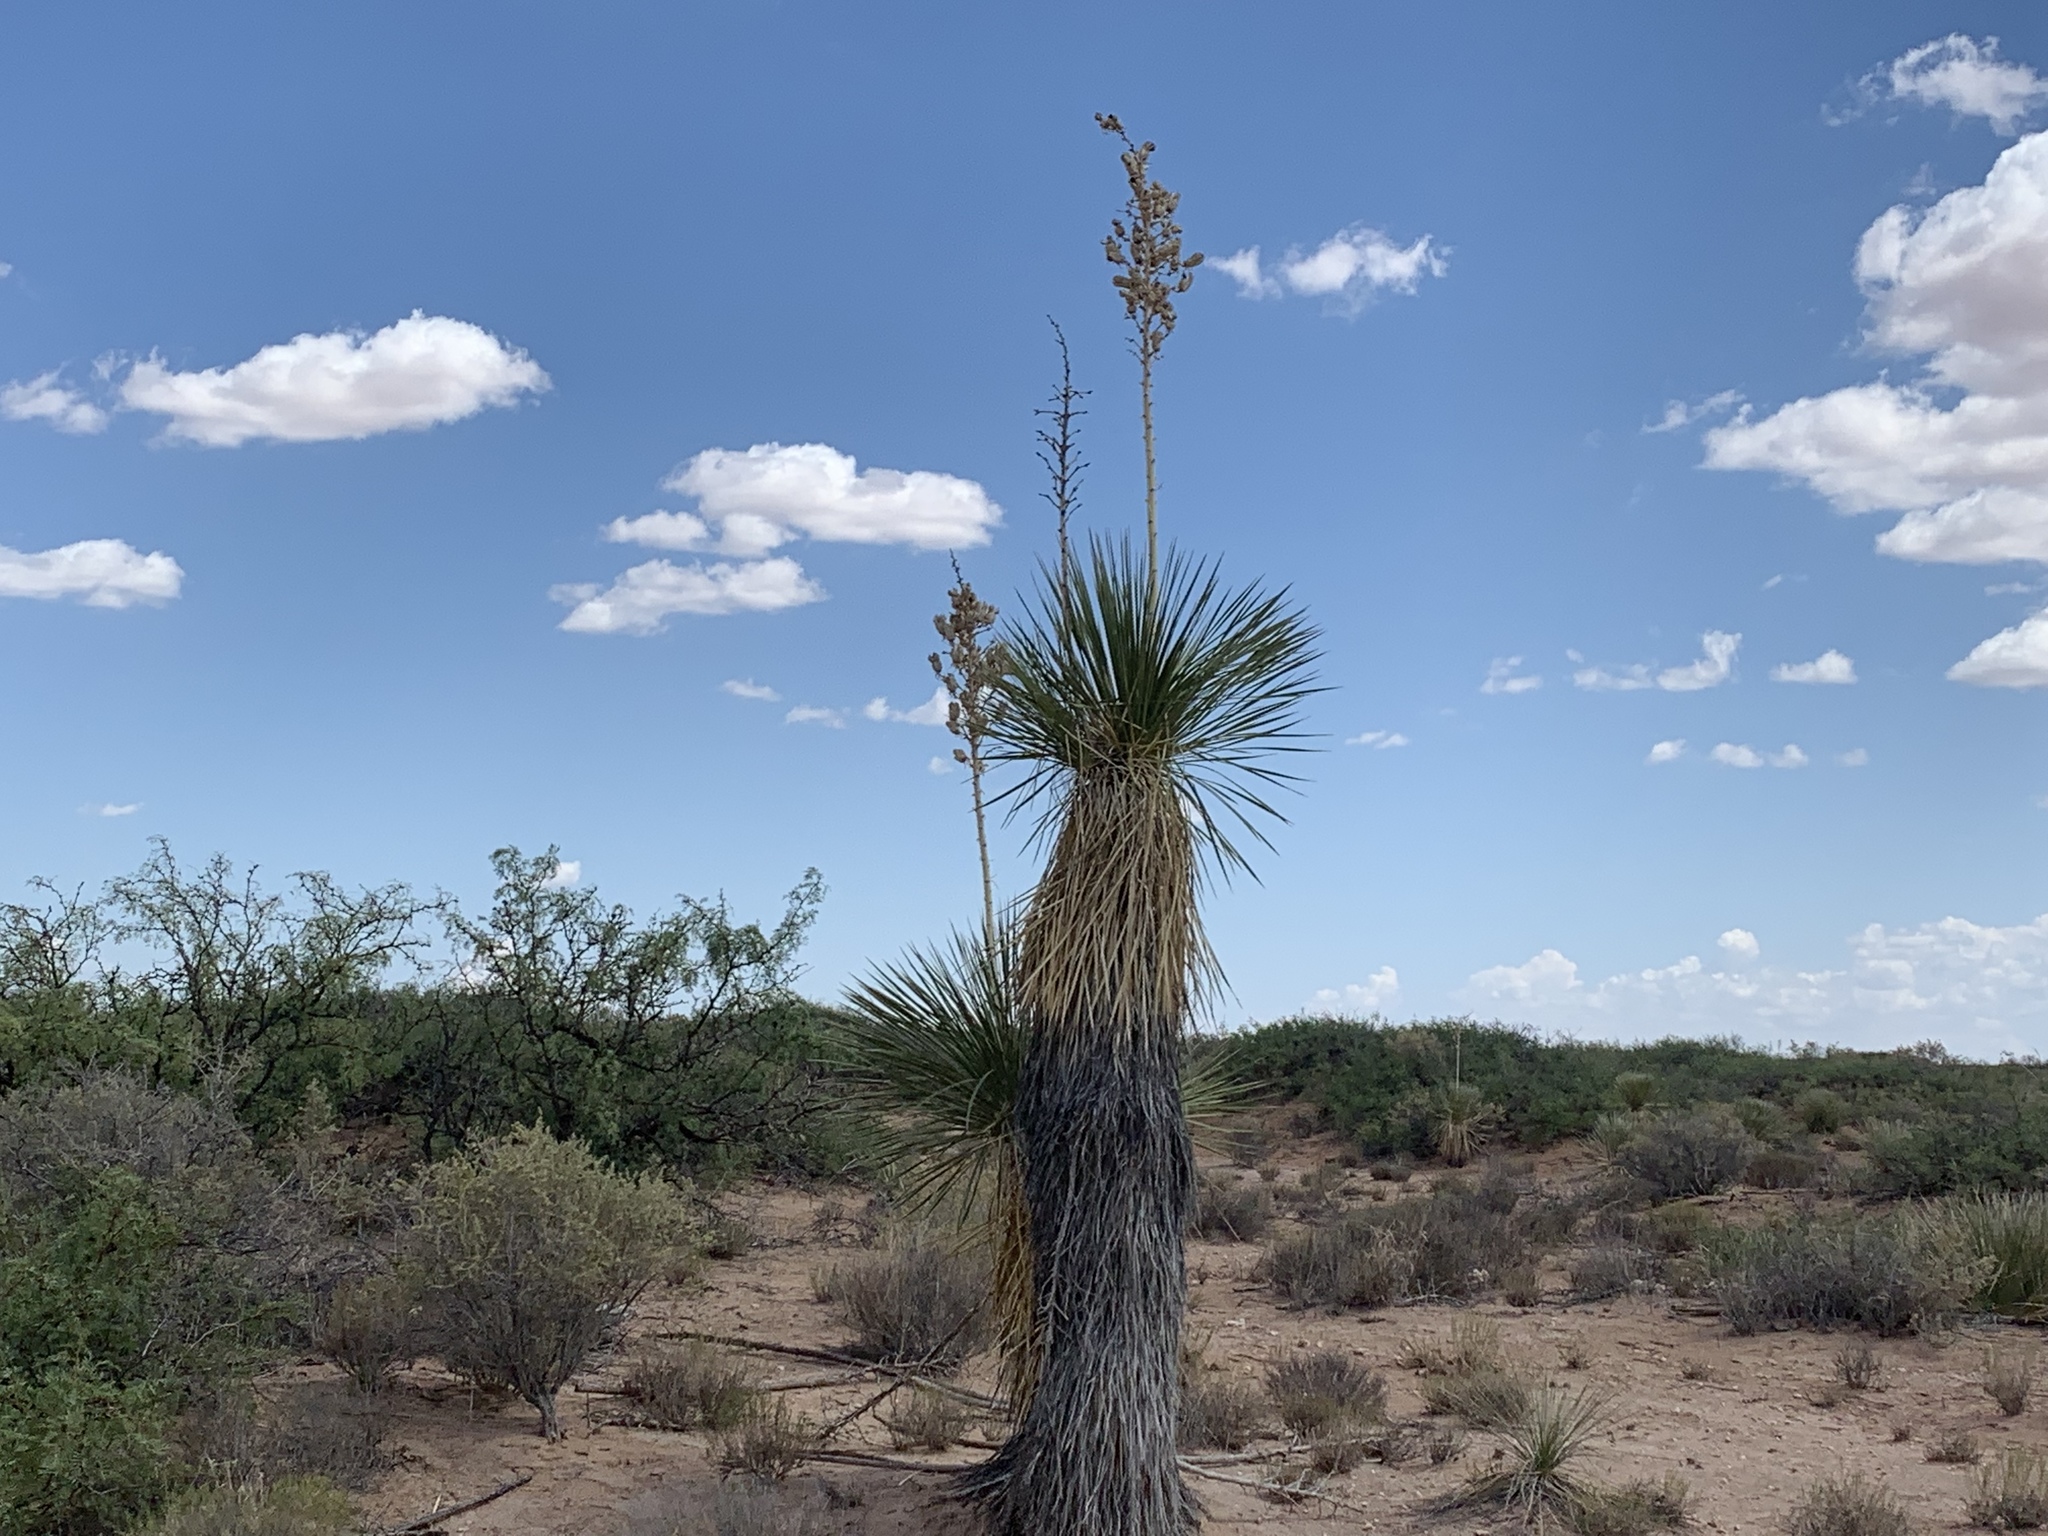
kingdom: Plantae
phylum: Tracheophyta
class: Liliopsida
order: Asparagales
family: Asparagaceae
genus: Yucca
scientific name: Yucca elata
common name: Palmella
